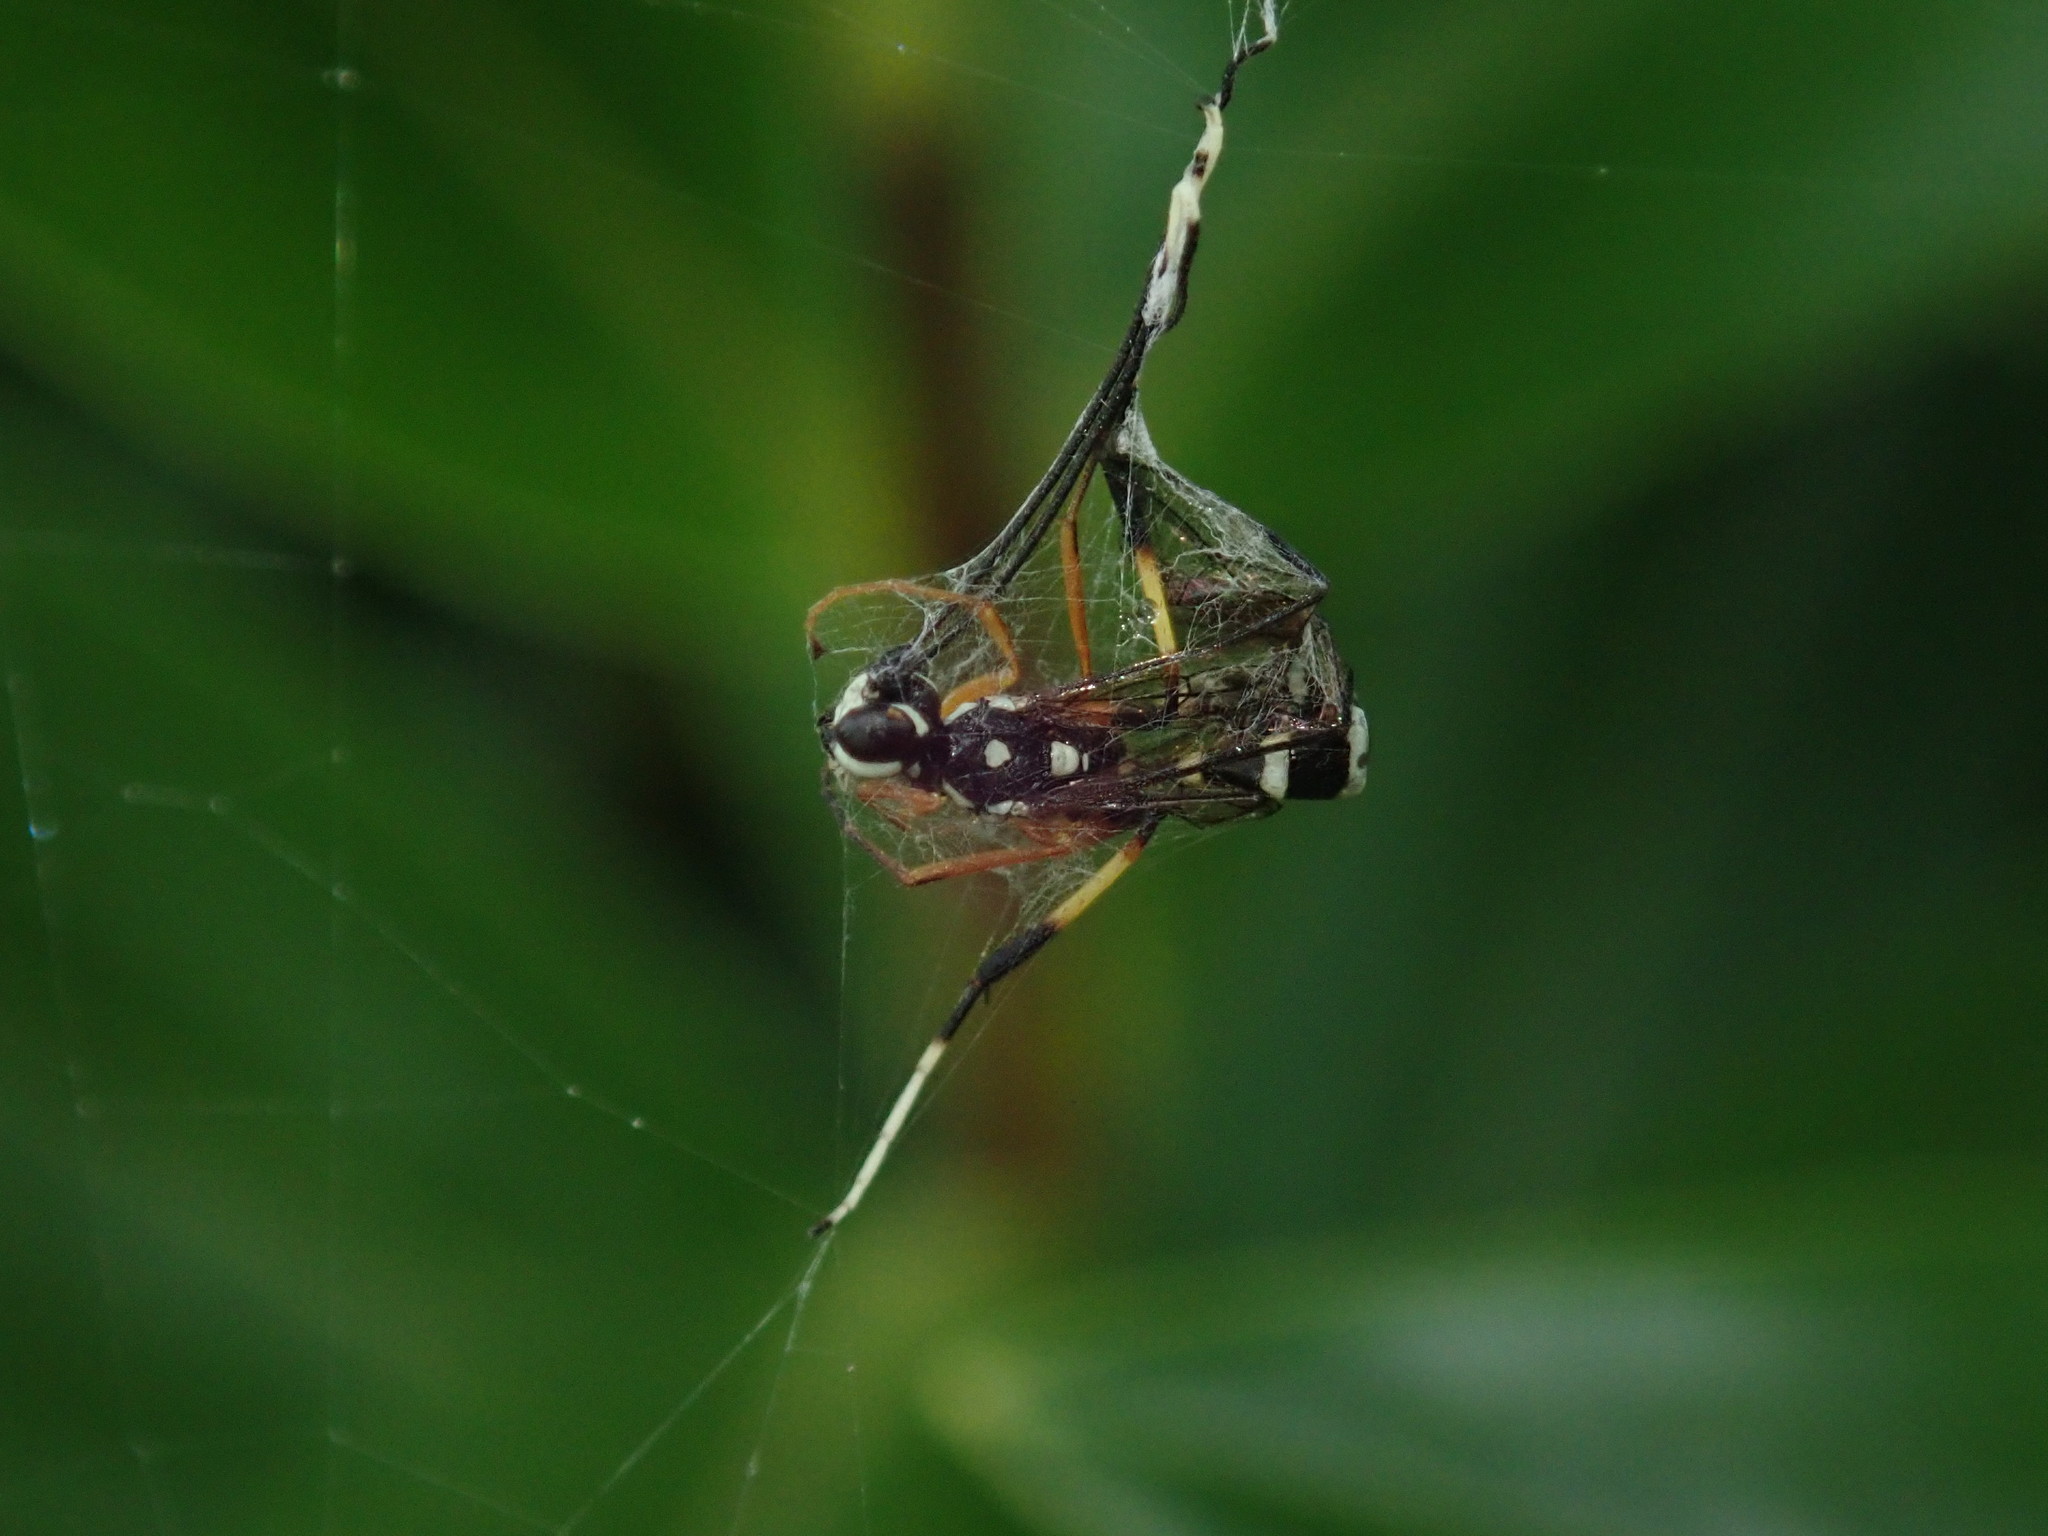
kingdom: Animalia
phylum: Arthropoda
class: Insecta
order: Hymenoptera
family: Ichneumonidae
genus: Xanthocryptus
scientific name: Xanthocryptus novozealandicus
